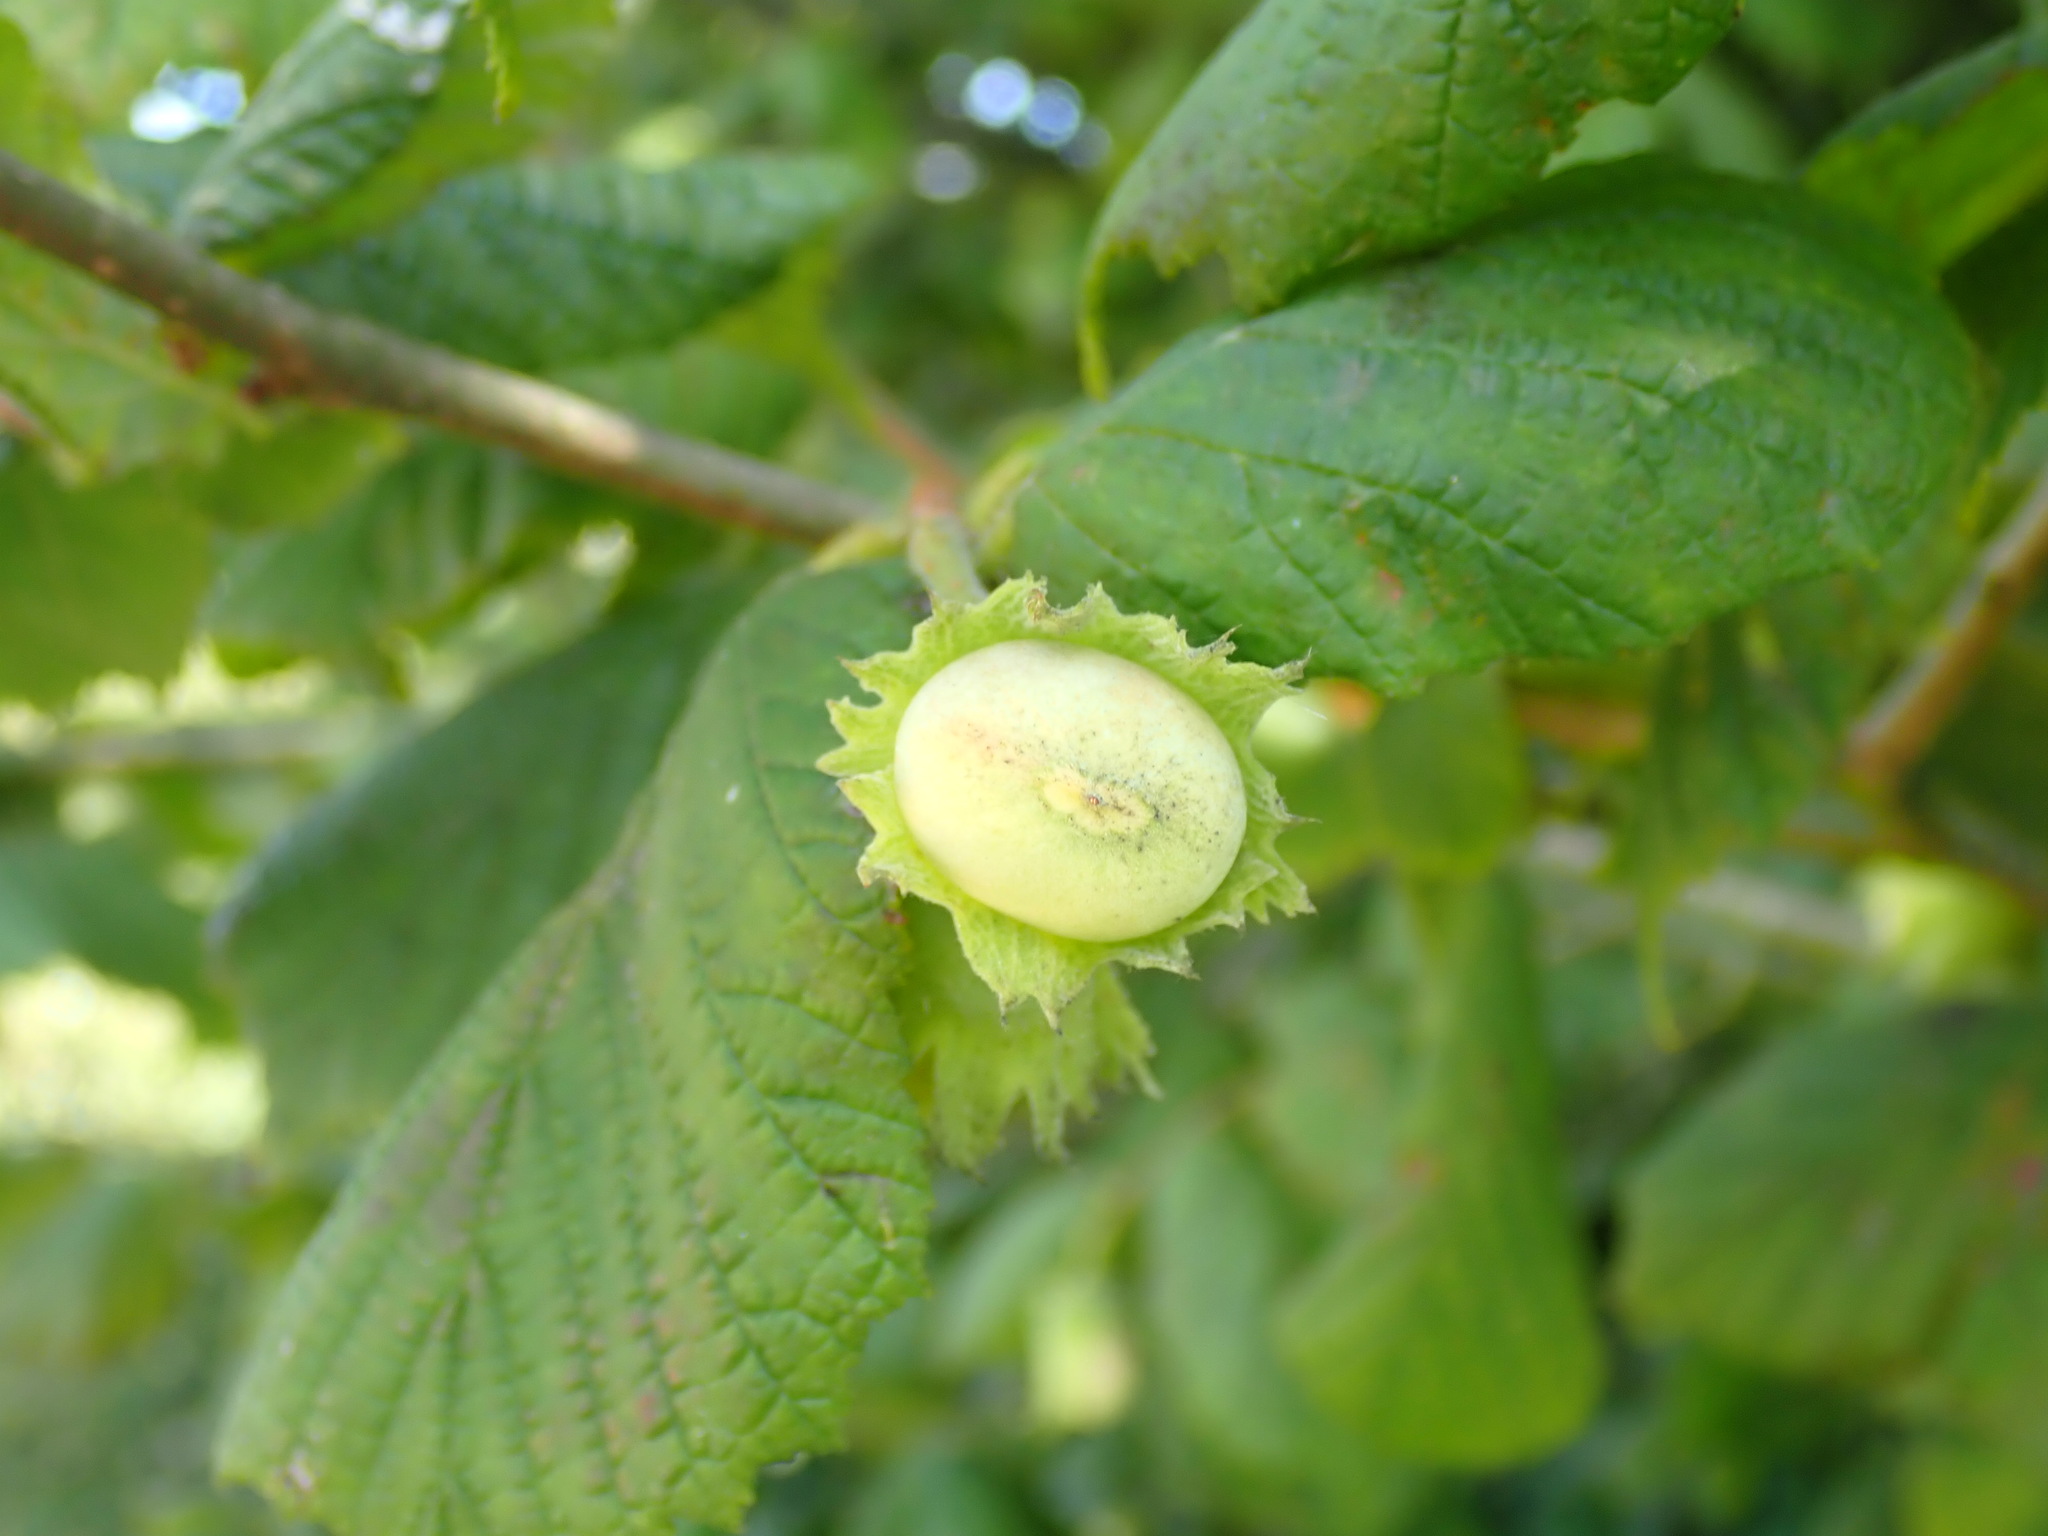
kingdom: Plantae
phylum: Tracheophyta
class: Magnoliopsida
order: Fagales
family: Betulaceae
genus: Corylus
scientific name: Corylus avellana
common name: European hazel
